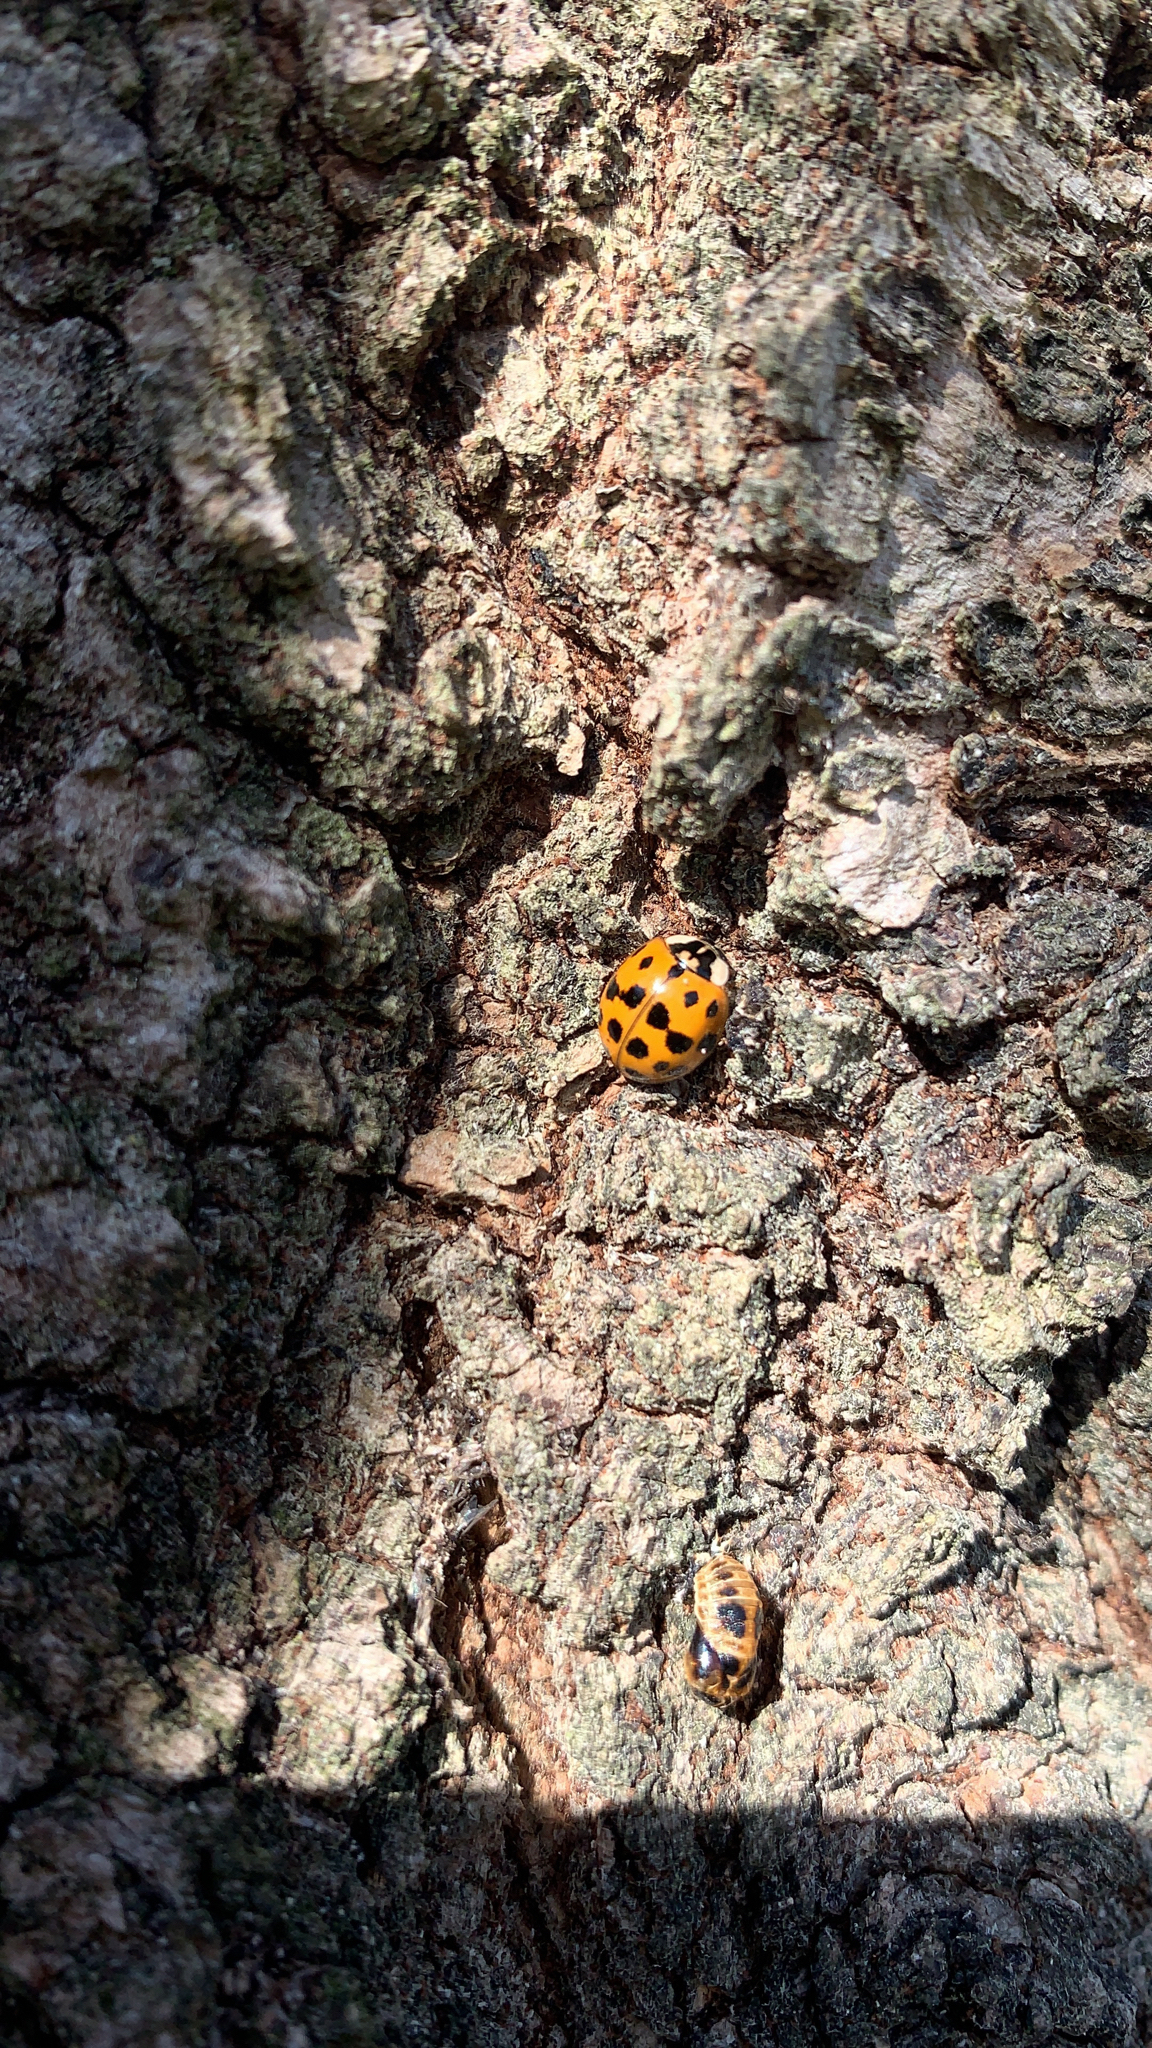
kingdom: Animalia
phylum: Arthropoda
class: Insecta
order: Coleoptera
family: Coccinellidae
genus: Harmonia
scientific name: Harmonia axyridis
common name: Harlequin ladybird
